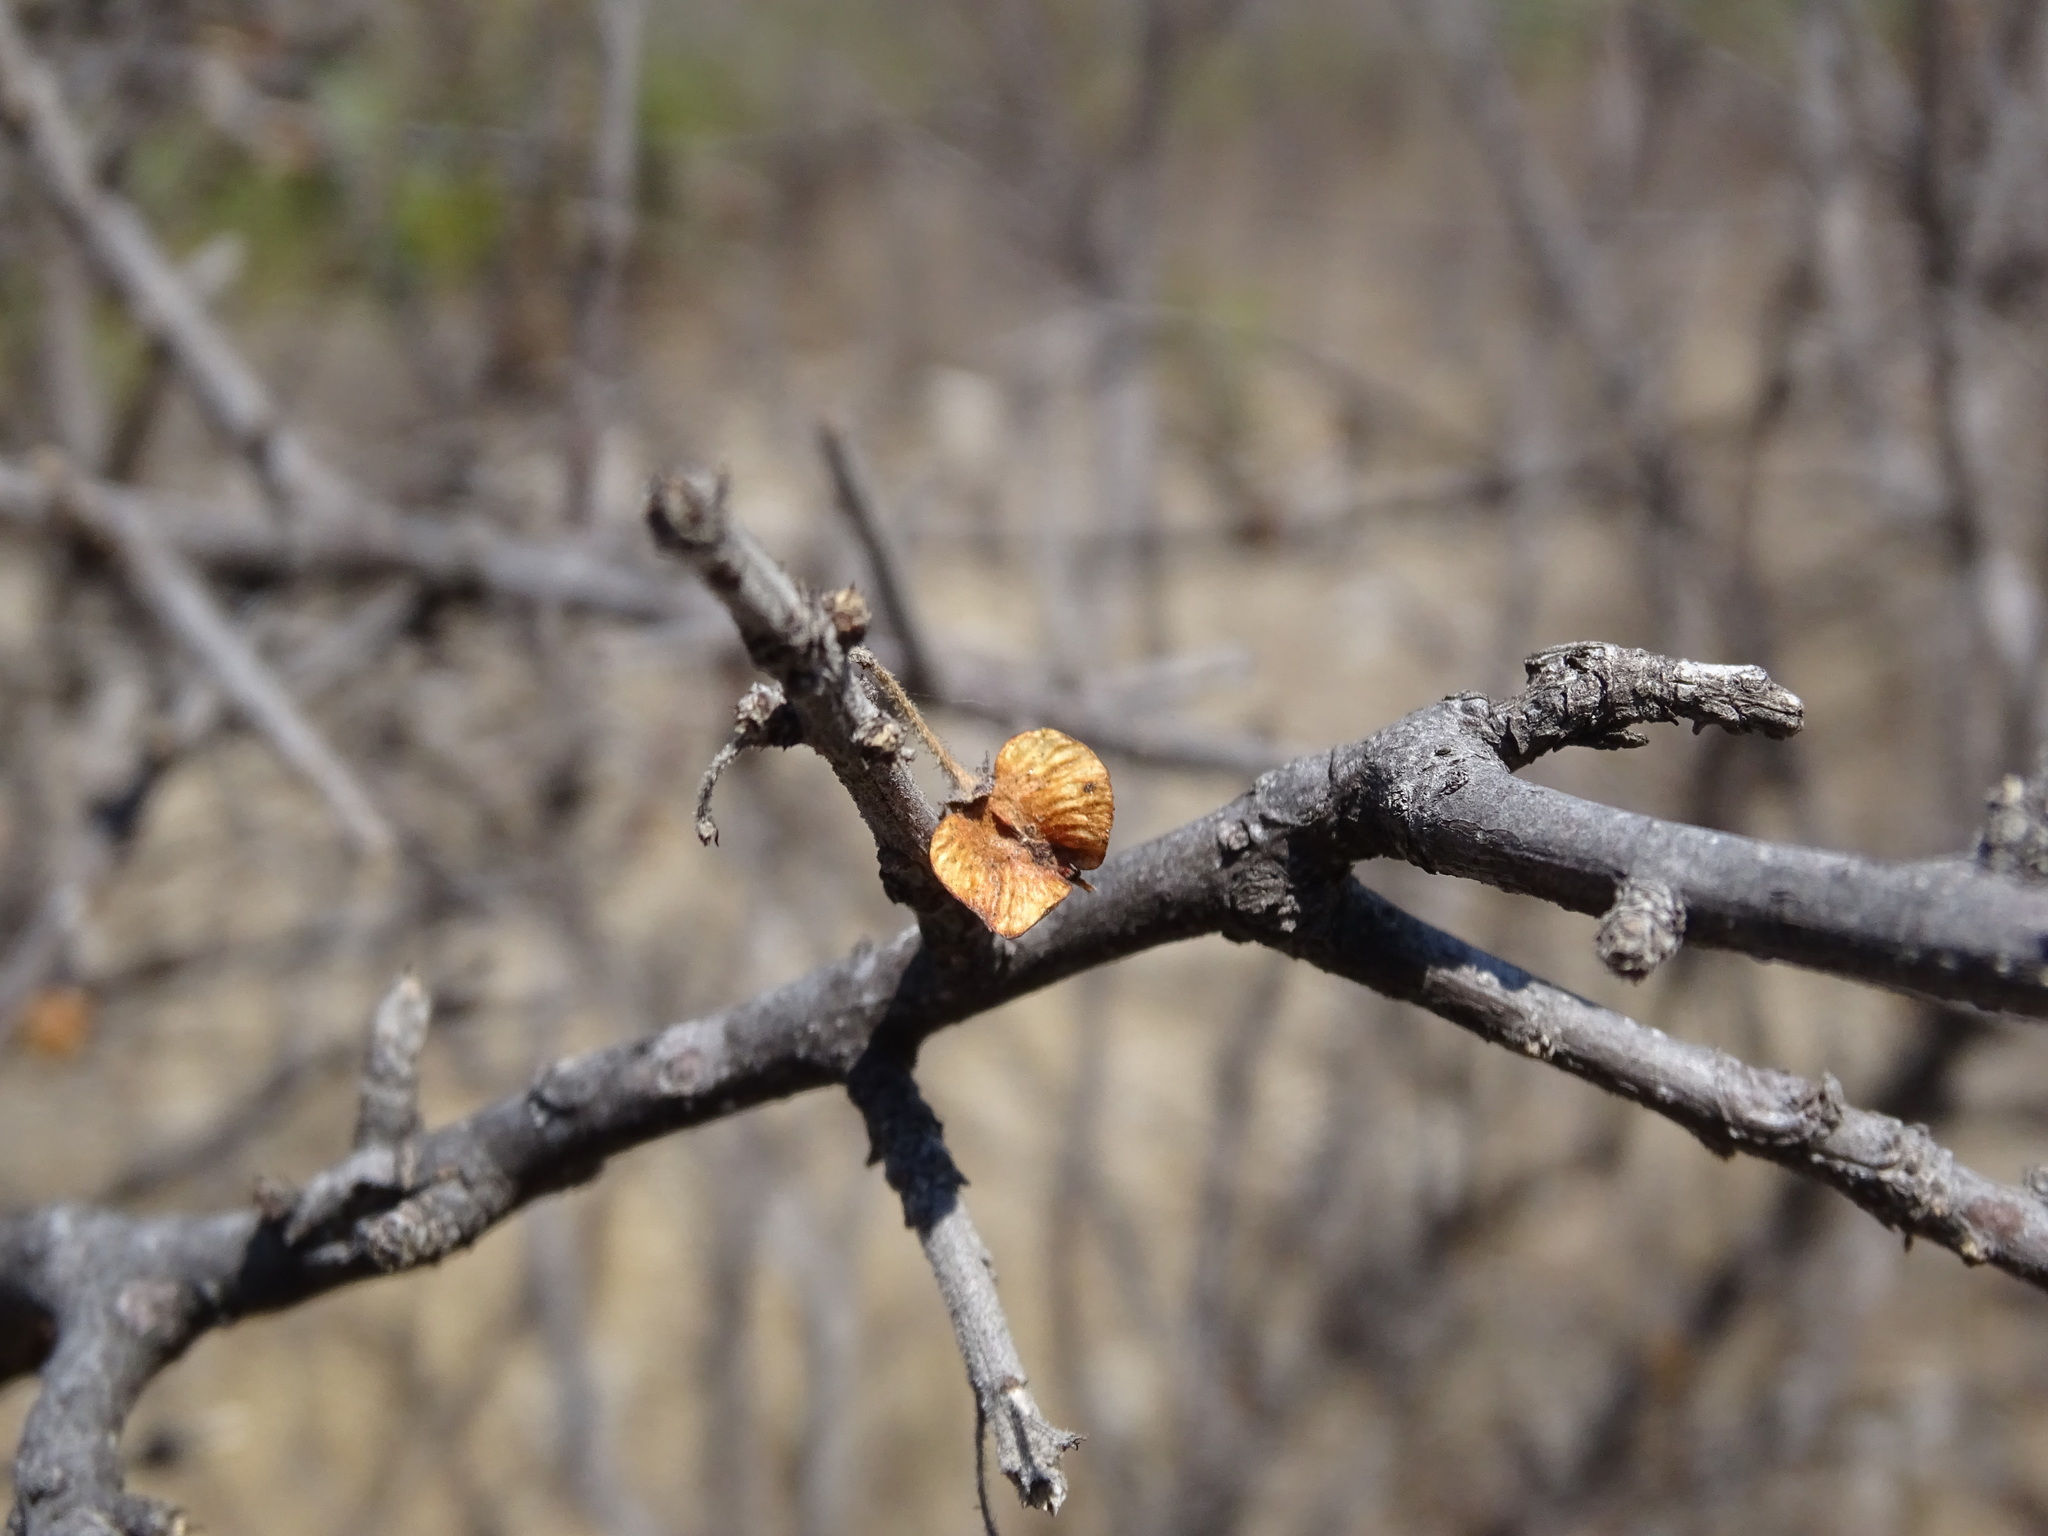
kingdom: Plantae
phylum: Tracheophyta
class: Magnoliopsida
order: Celastrales
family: Celastraceae
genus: Wimmeria
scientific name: Wimmeria microphylla
